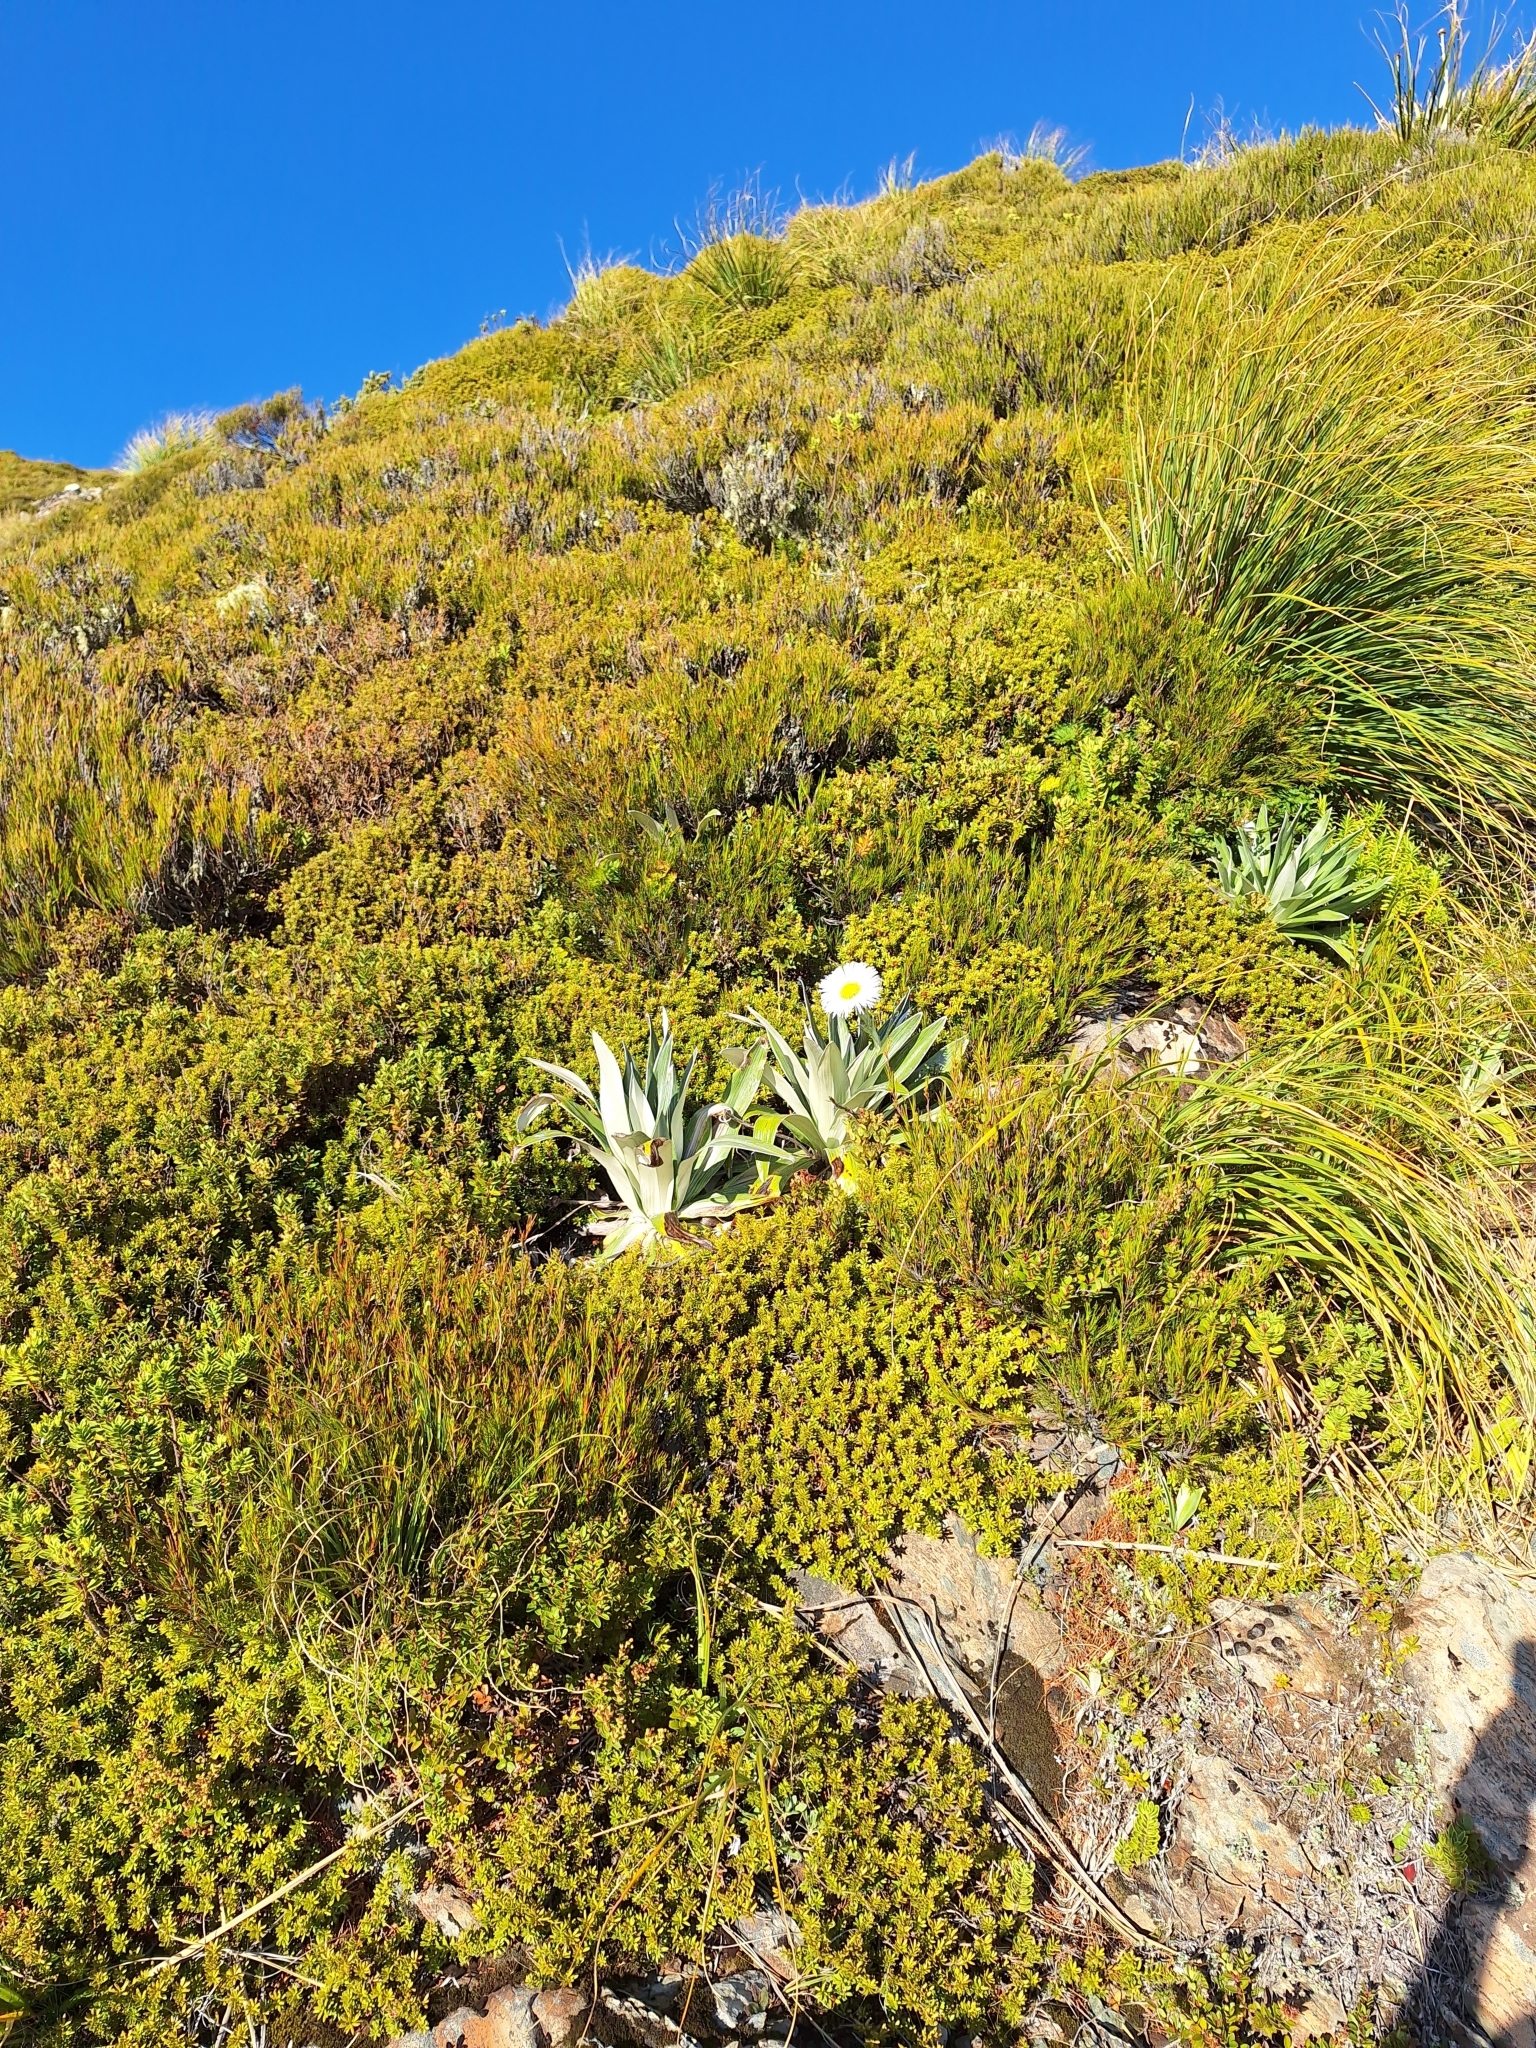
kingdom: Plantae
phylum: Tracheophyta
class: Magnoliopsida
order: Asterales
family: Asteraceae
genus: Celmisia
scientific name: Celmisia semicordata
